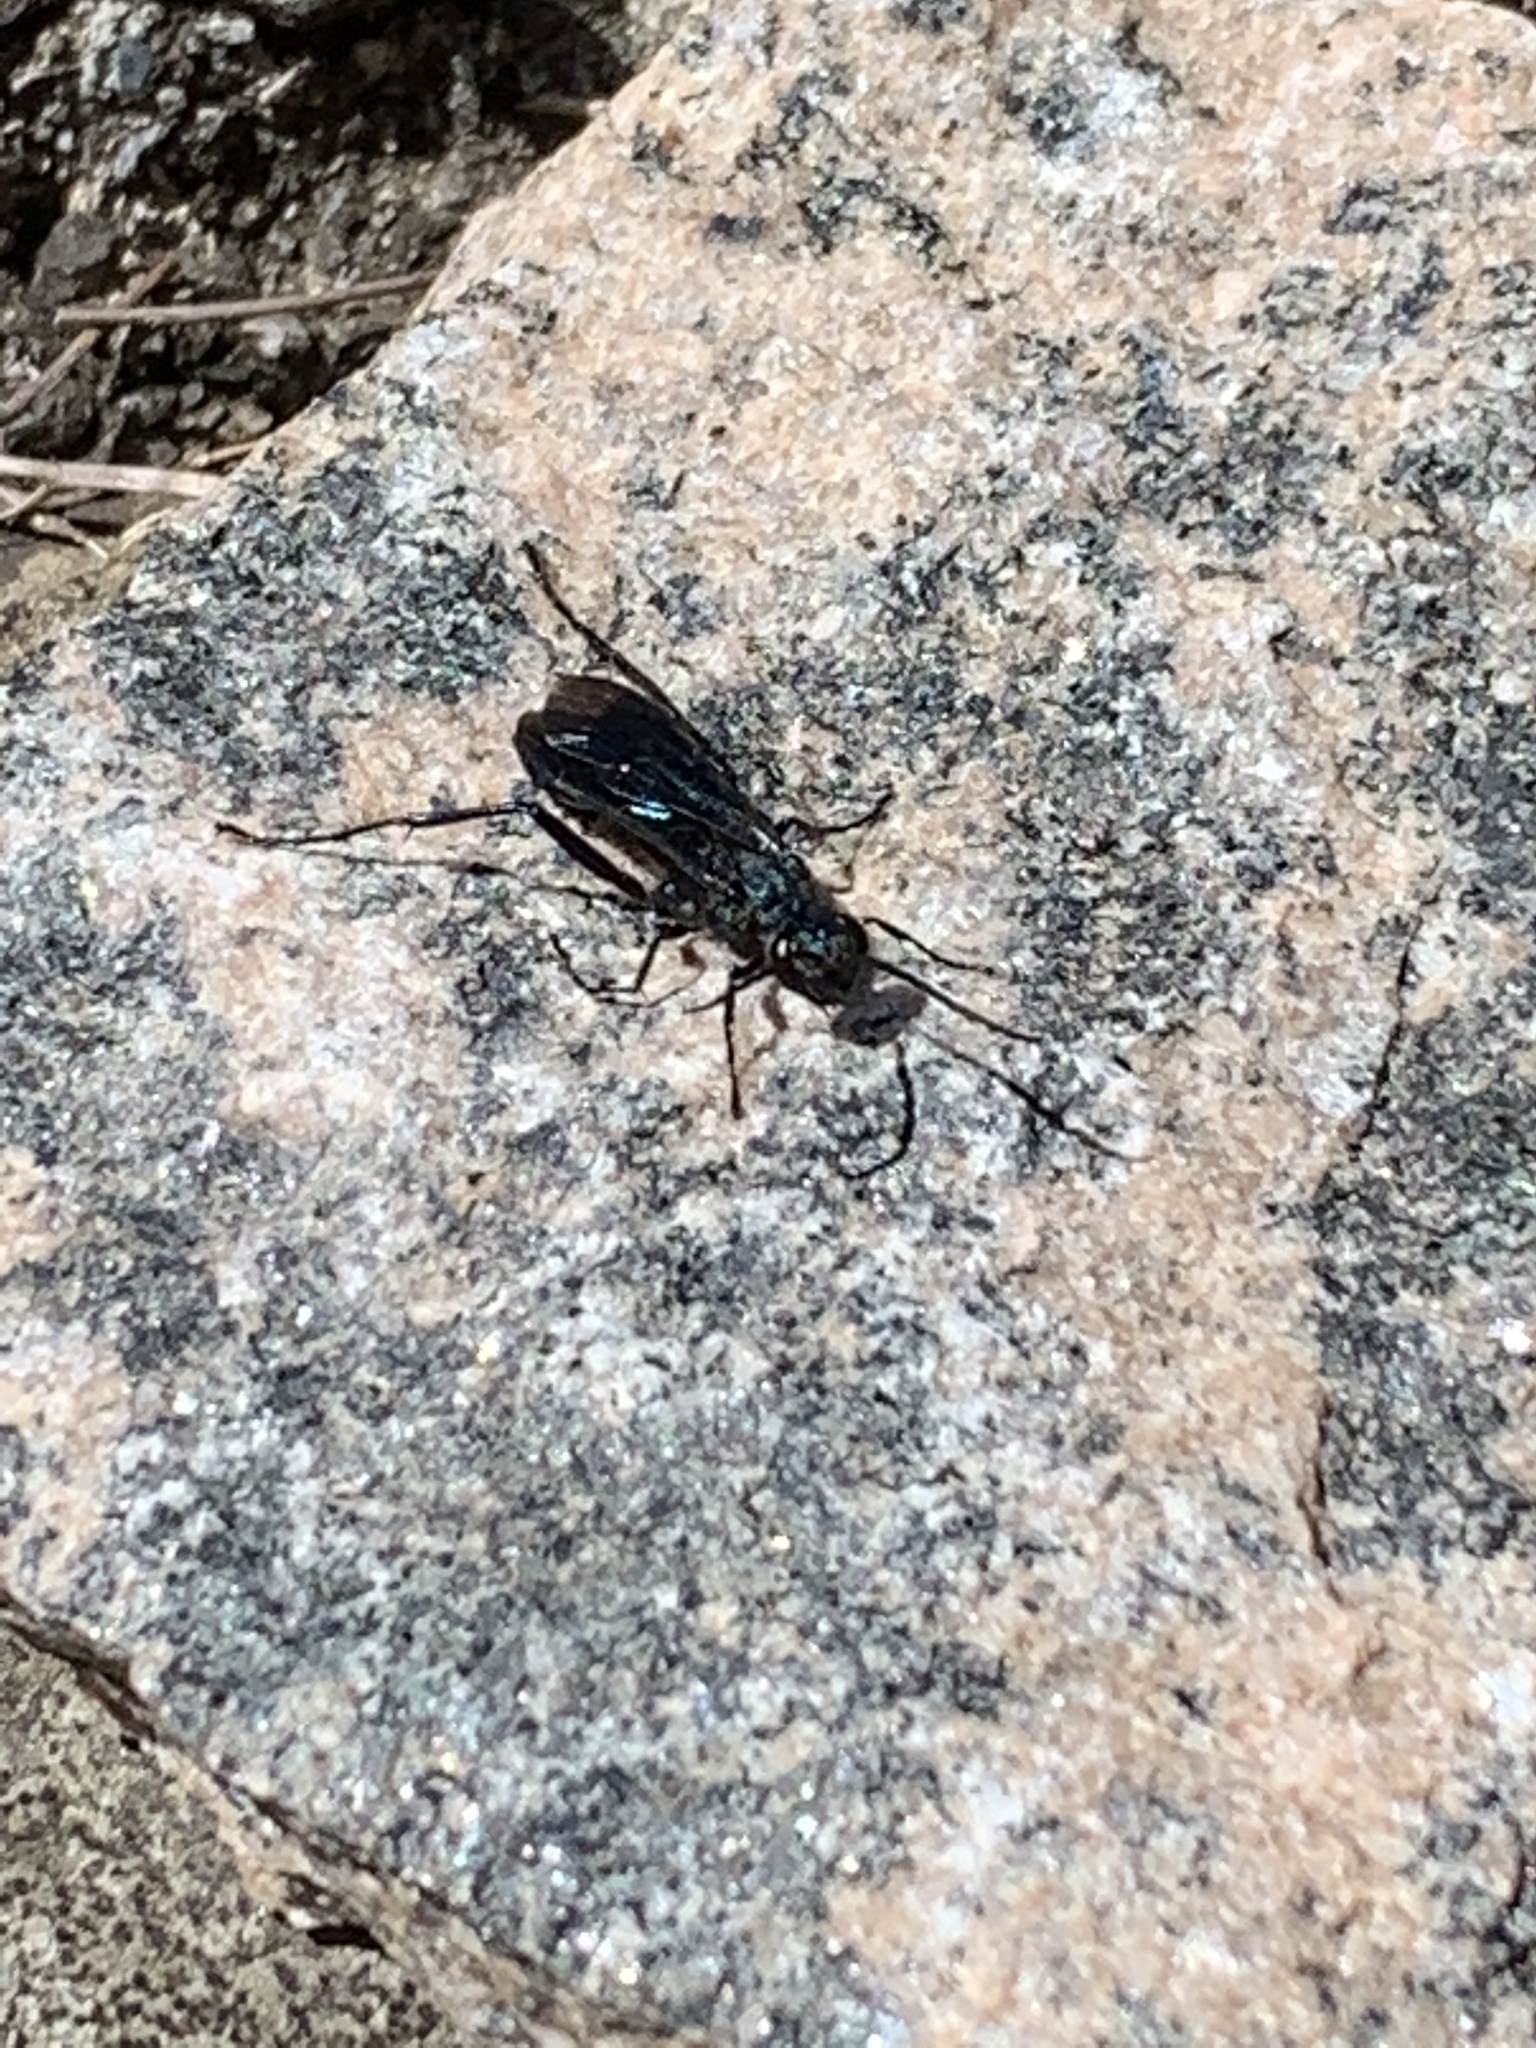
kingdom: Animalia
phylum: Arthropoda
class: Insecta
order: Hymenoptera
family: Sphecidae
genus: Chalybion
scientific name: Chalybion californicum
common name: Mud dauber
